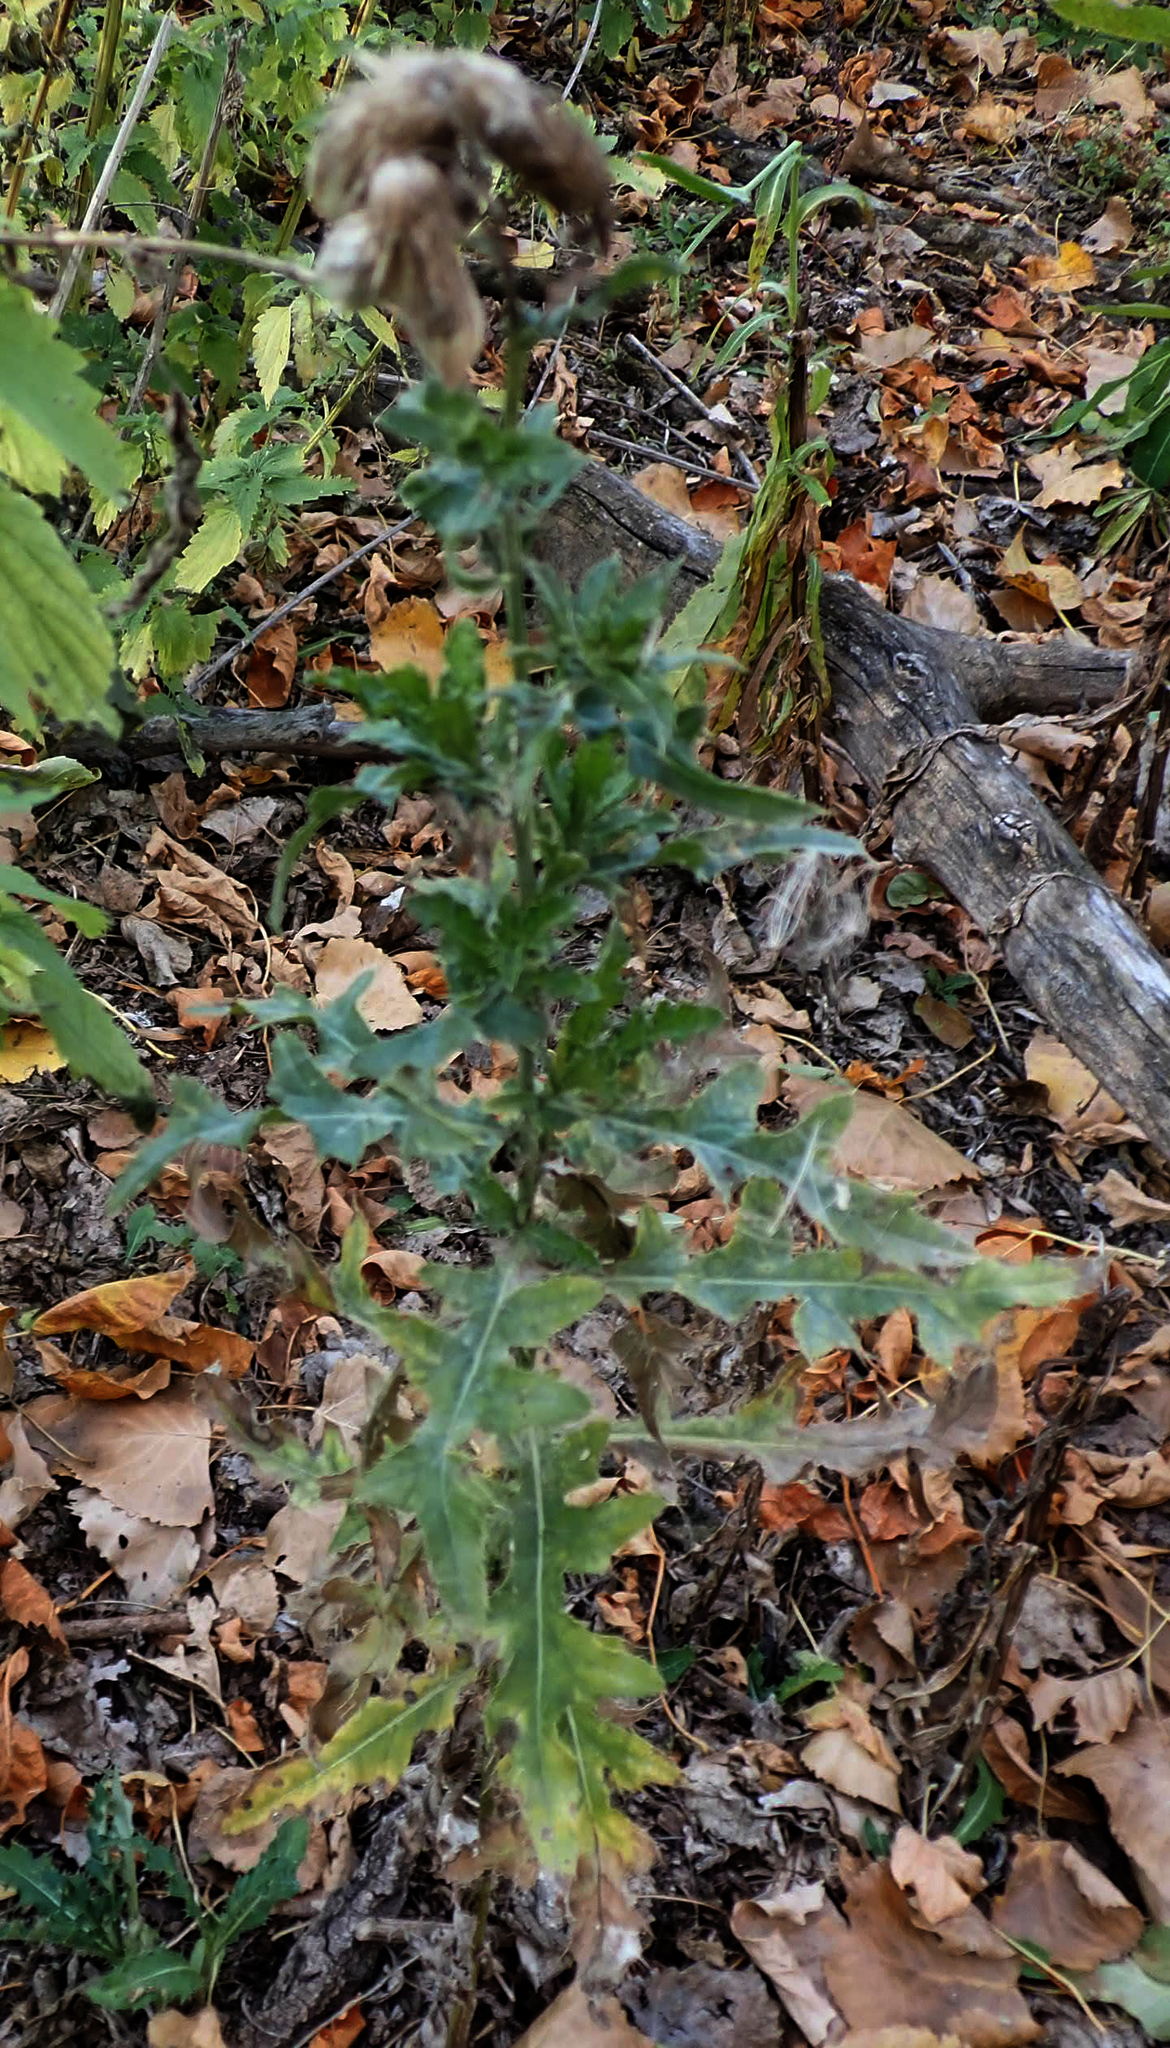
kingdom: Plantae
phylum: Tracheophyta
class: Magnoliopsida
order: Asterales
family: Asteraceae
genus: Cirsium
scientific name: Cirsium arvense
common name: Creeping thistle
